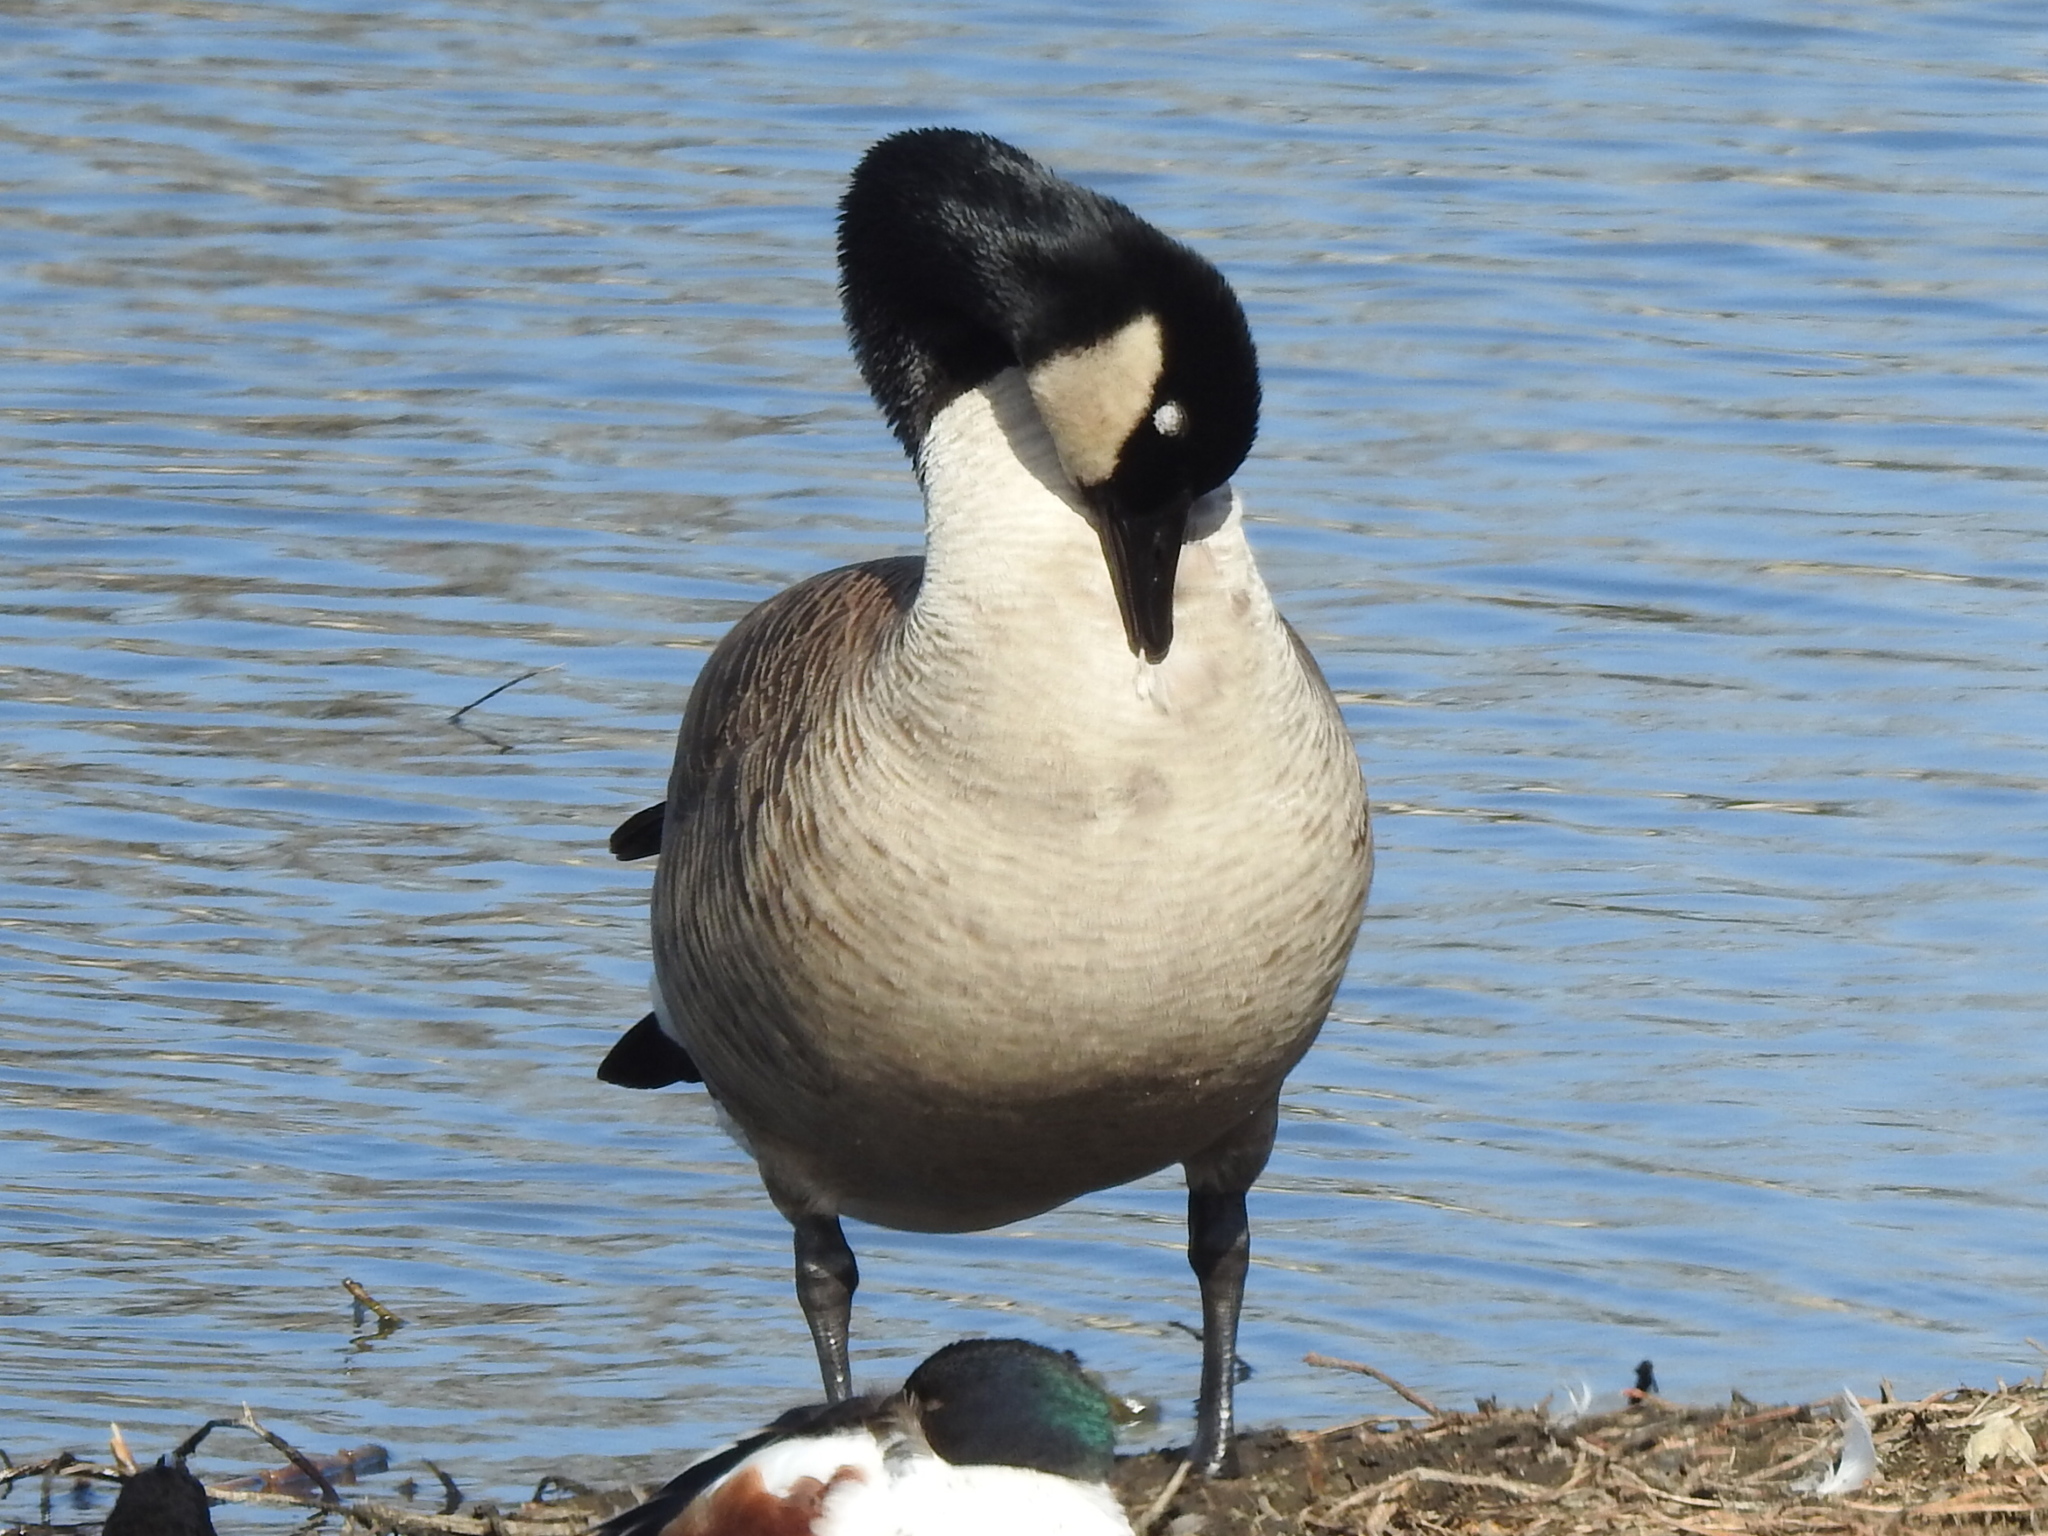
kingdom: Animalia
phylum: Chordata
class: Aves
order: Anseriformes
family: Anatidae
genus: Branta
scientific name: Branta canadensis
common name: Canada goose
